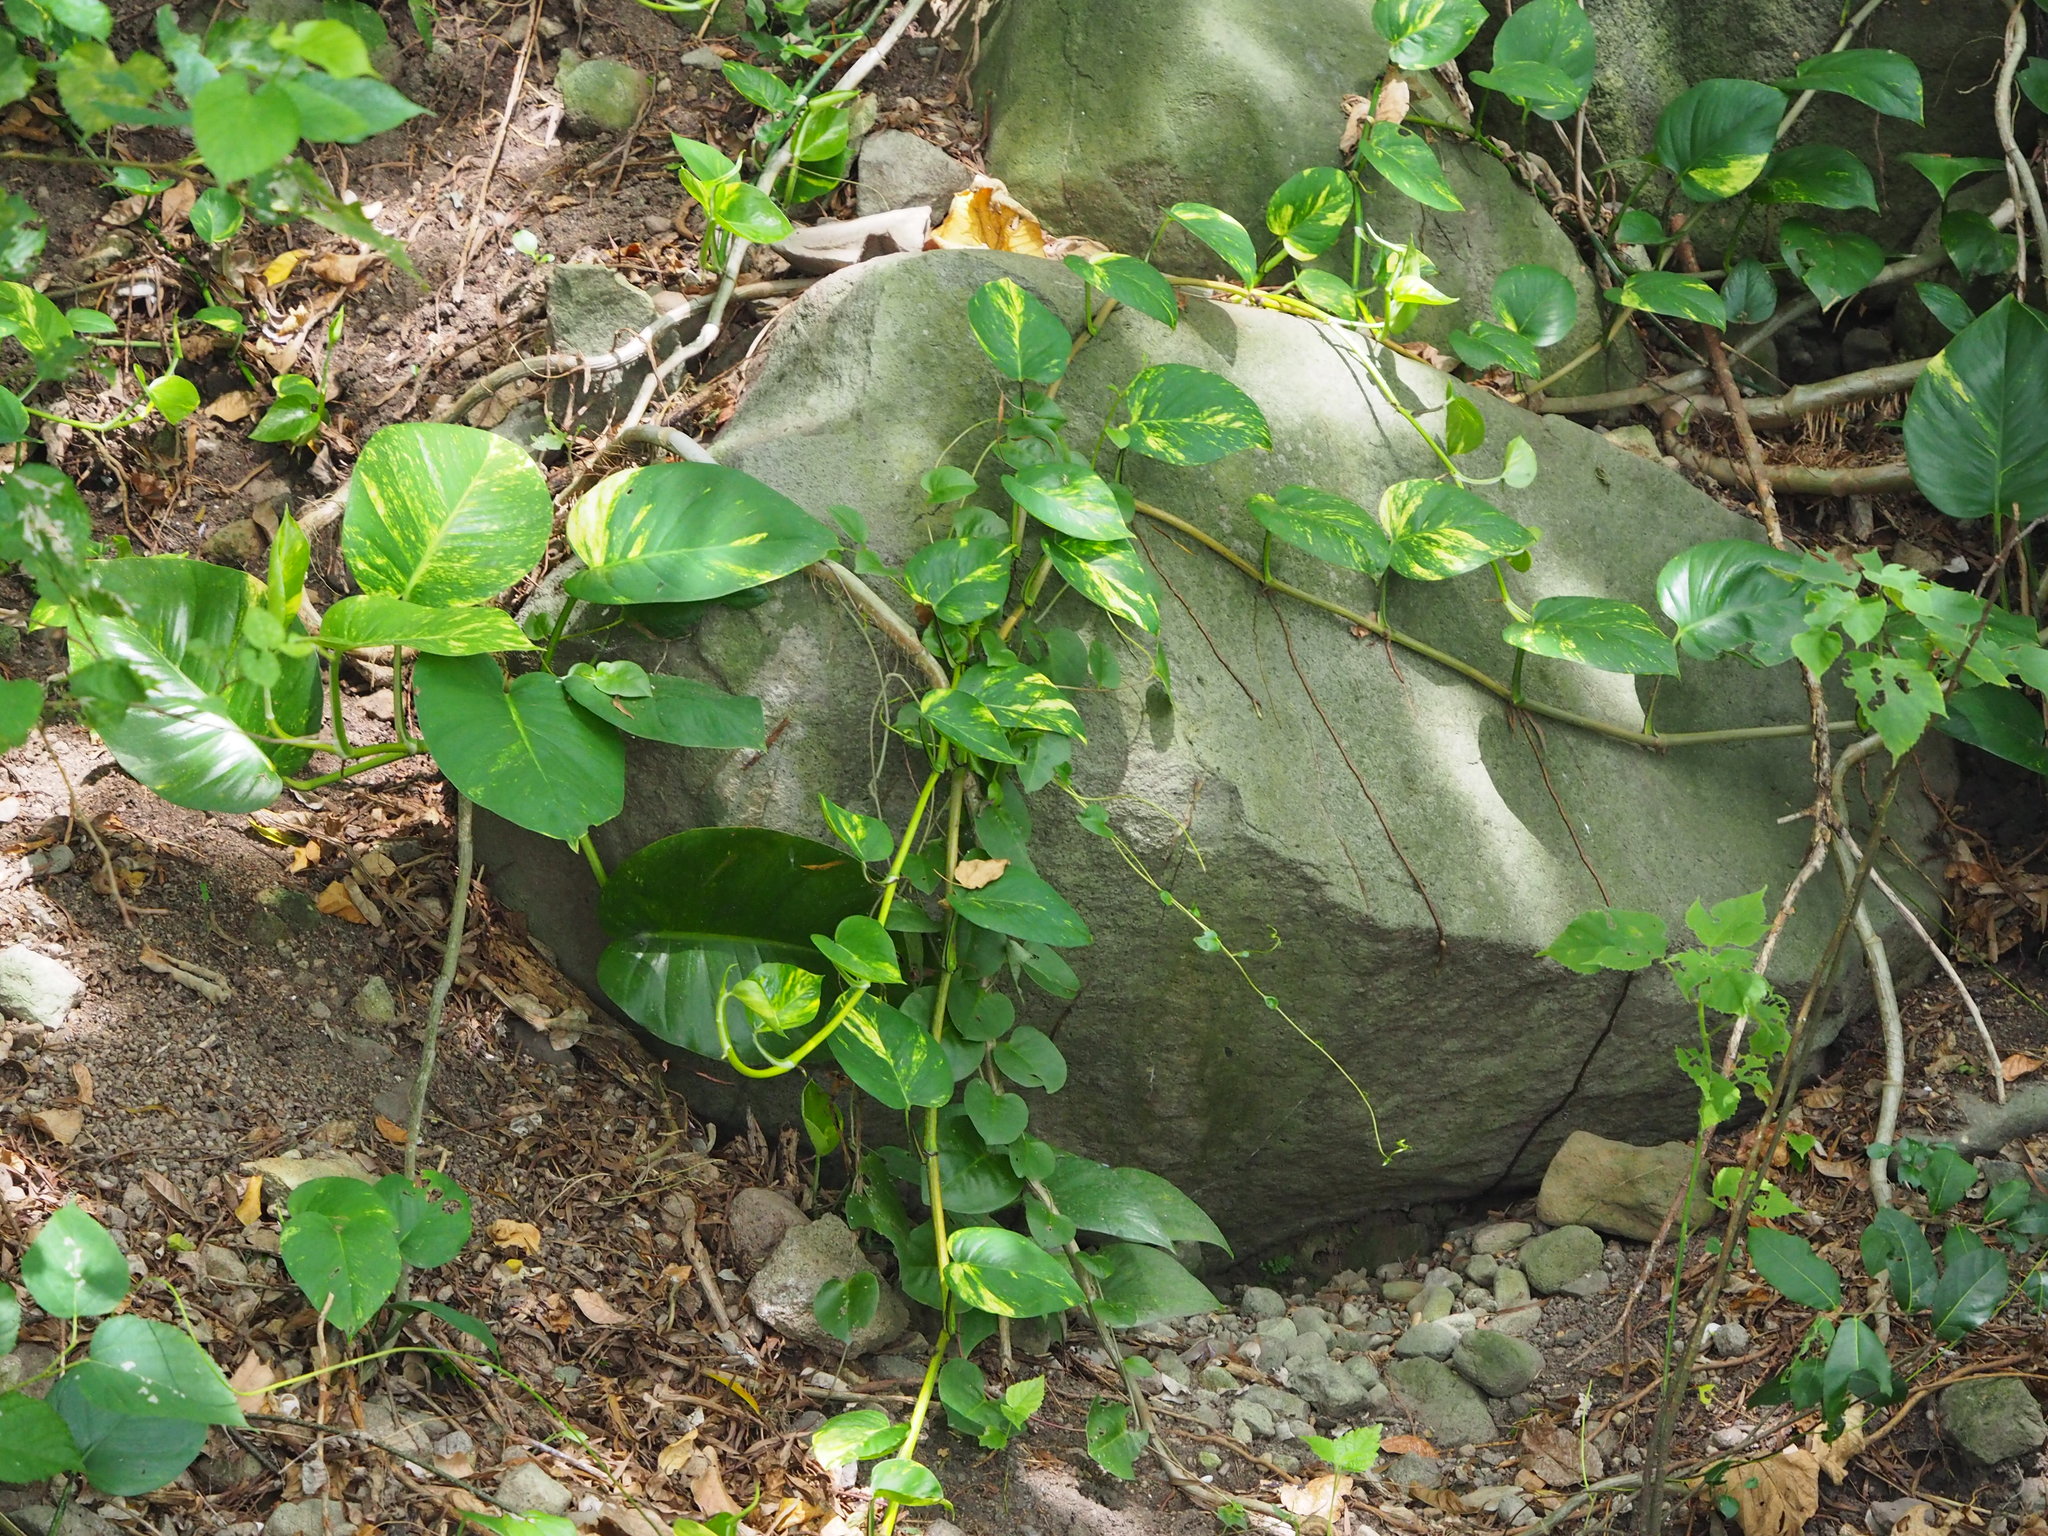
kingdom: Plantae
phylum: Tracheophyta
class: Liliopsida
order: Alismatales
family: Araceae
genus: Epipremnum
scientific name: Epipremnum aureum
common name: Golden hunter's-robe
